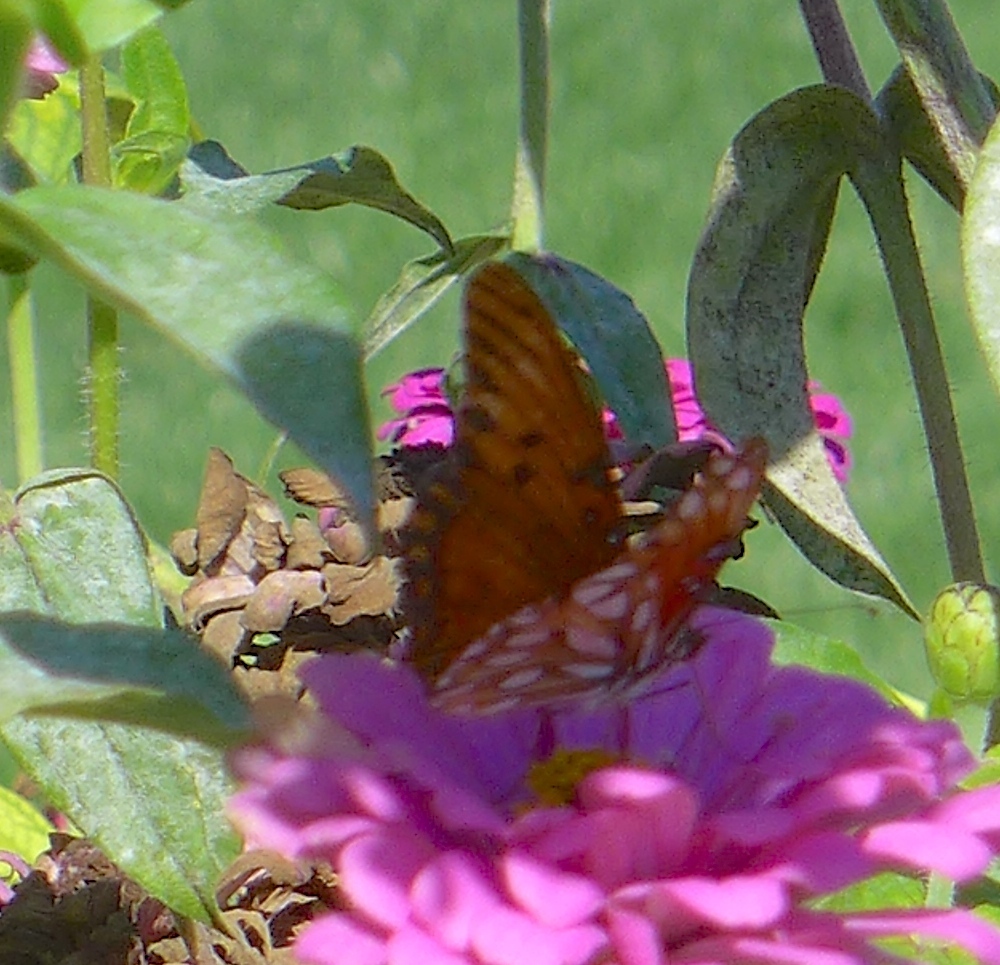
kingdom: Animalia
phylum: Arthropoda
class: Insecta
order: Lepidoptera
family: Nymphalidae
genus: Dione
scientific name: Dione vanillae
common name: Gulf fritillary
